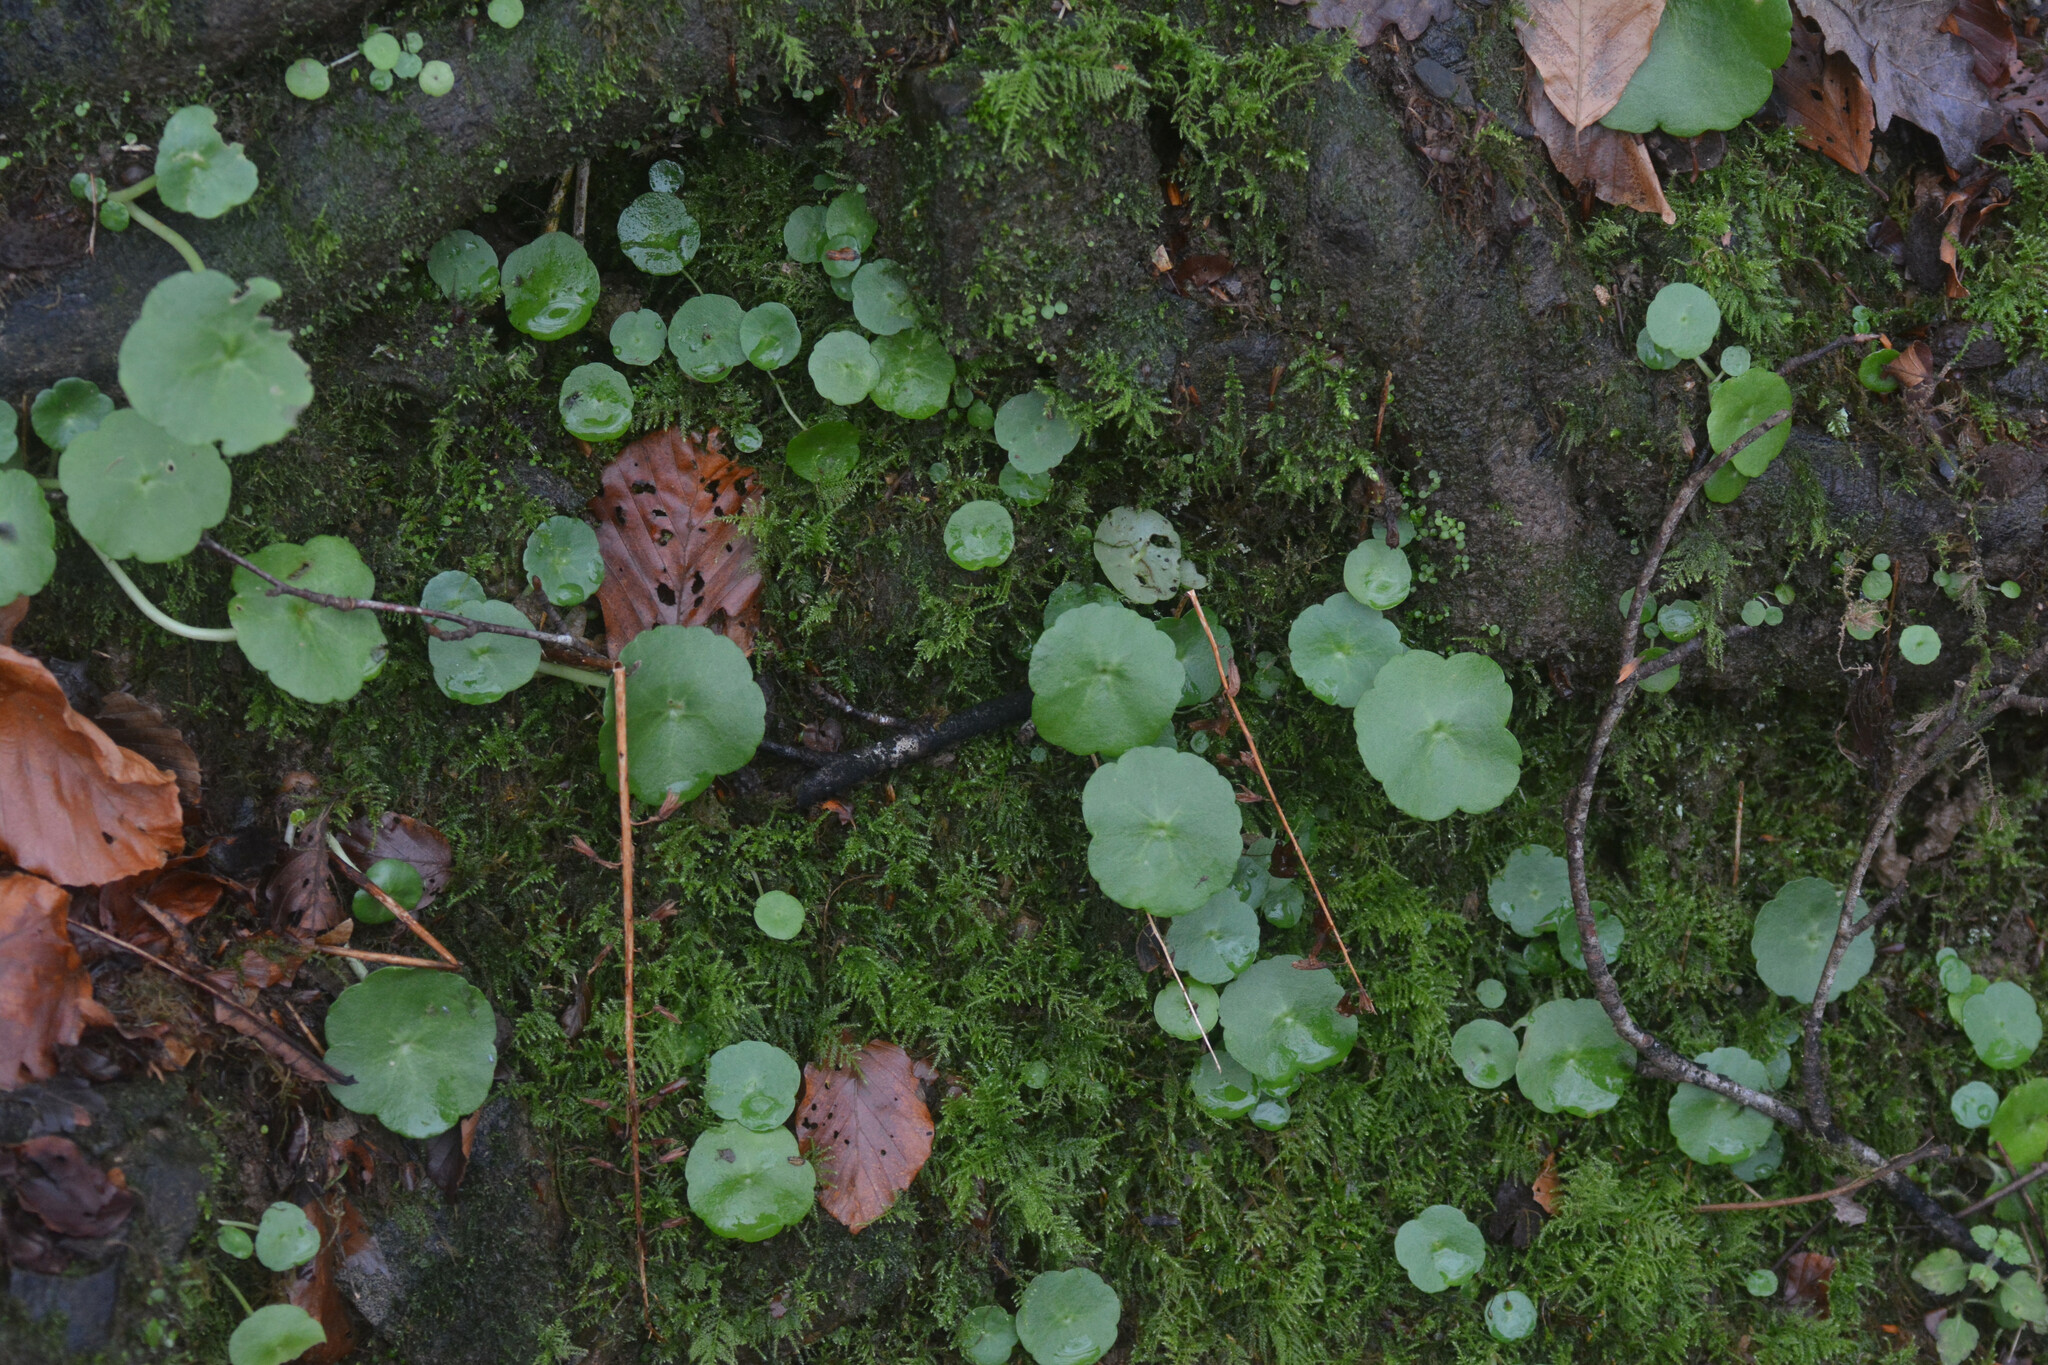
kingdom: Plantae
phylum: Tracheophyta
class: Magnoliopsida
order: Saxifragales
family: Crassulaceae
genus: Umbilicus
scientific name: Umbilicus rupestris
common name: Navelwort
